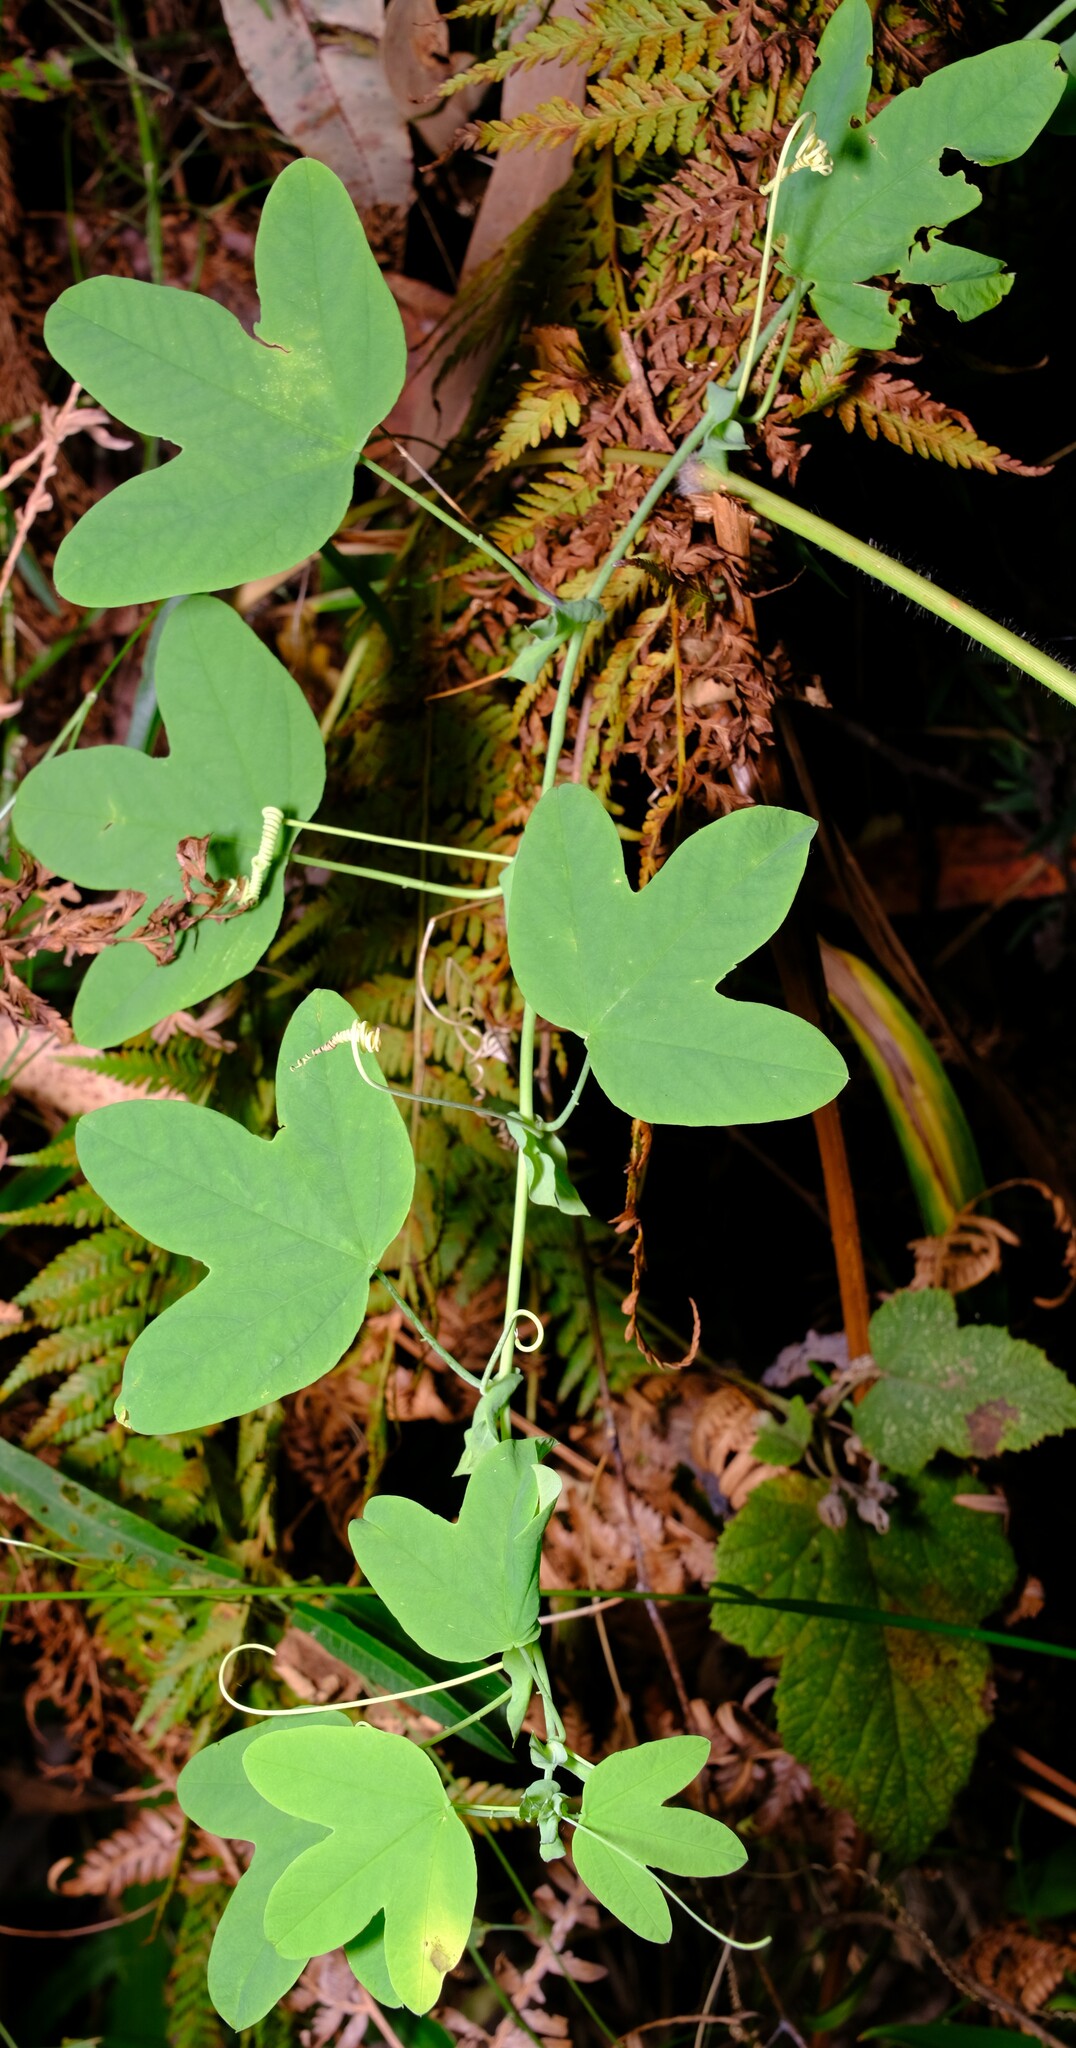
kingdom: Plantae
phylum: Tracheophyta
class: Magnoliopsida
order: Malpighiales
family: Passifloraceae
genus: Passiflora
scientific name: Passiflora subpeltata
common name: White passionflower
